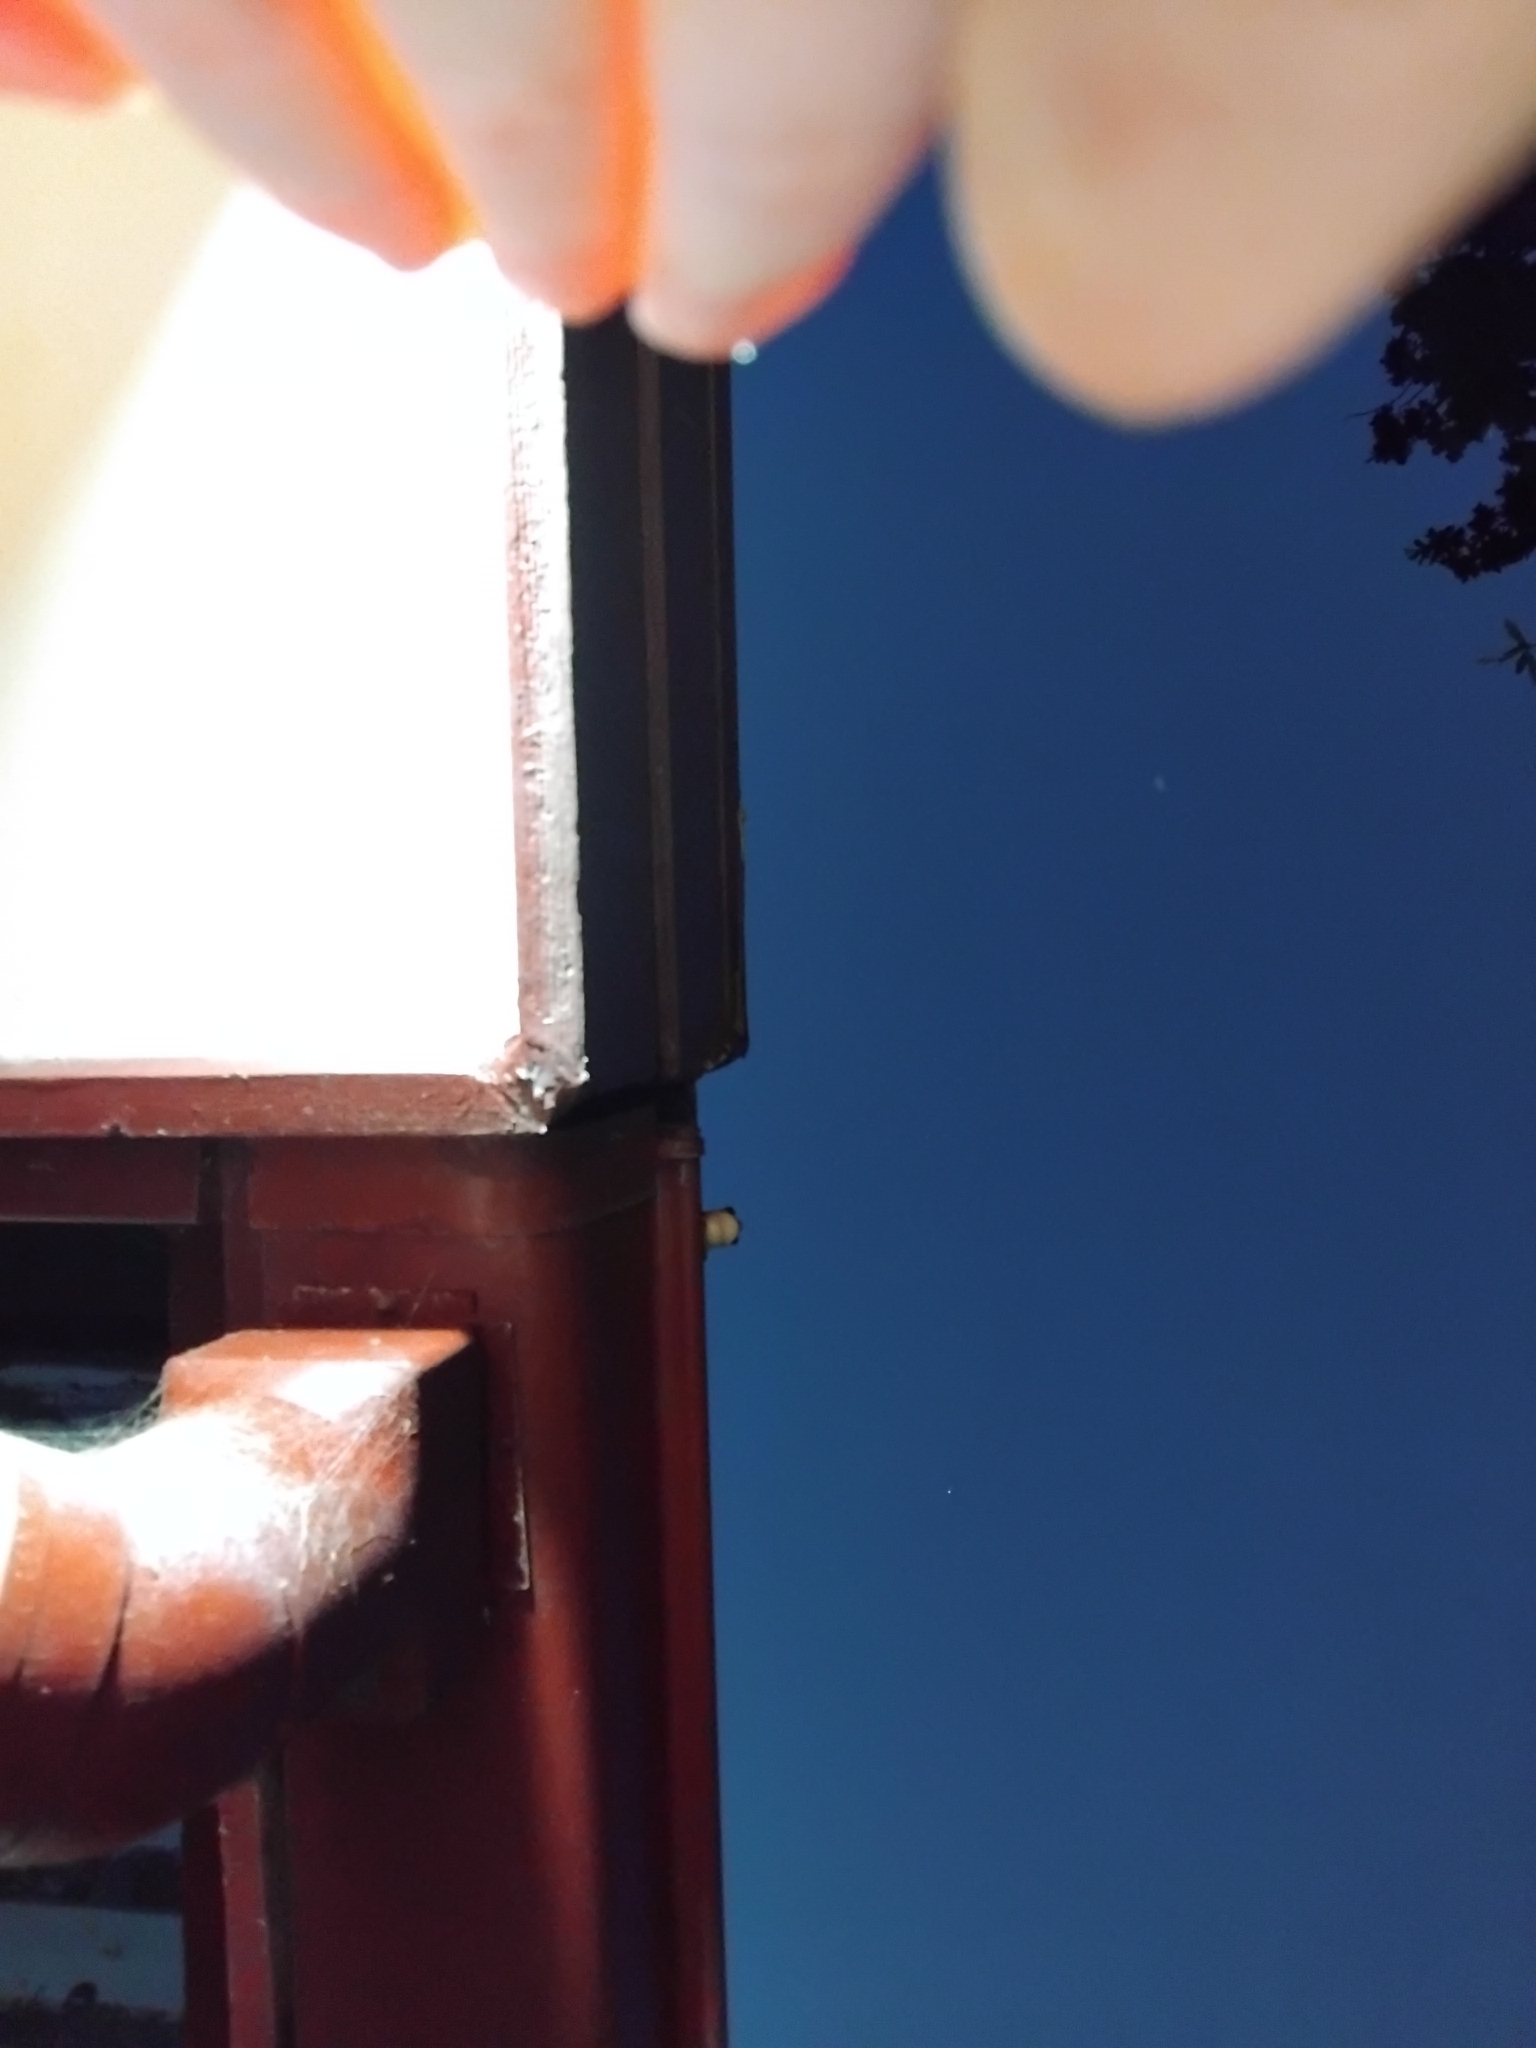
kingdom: Animalia
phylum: Chordata
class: Amphibia
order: Anura
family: Pelodryadidae
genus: Litoria
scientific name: Litoria peronii
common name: Emerald spotted treefrog
